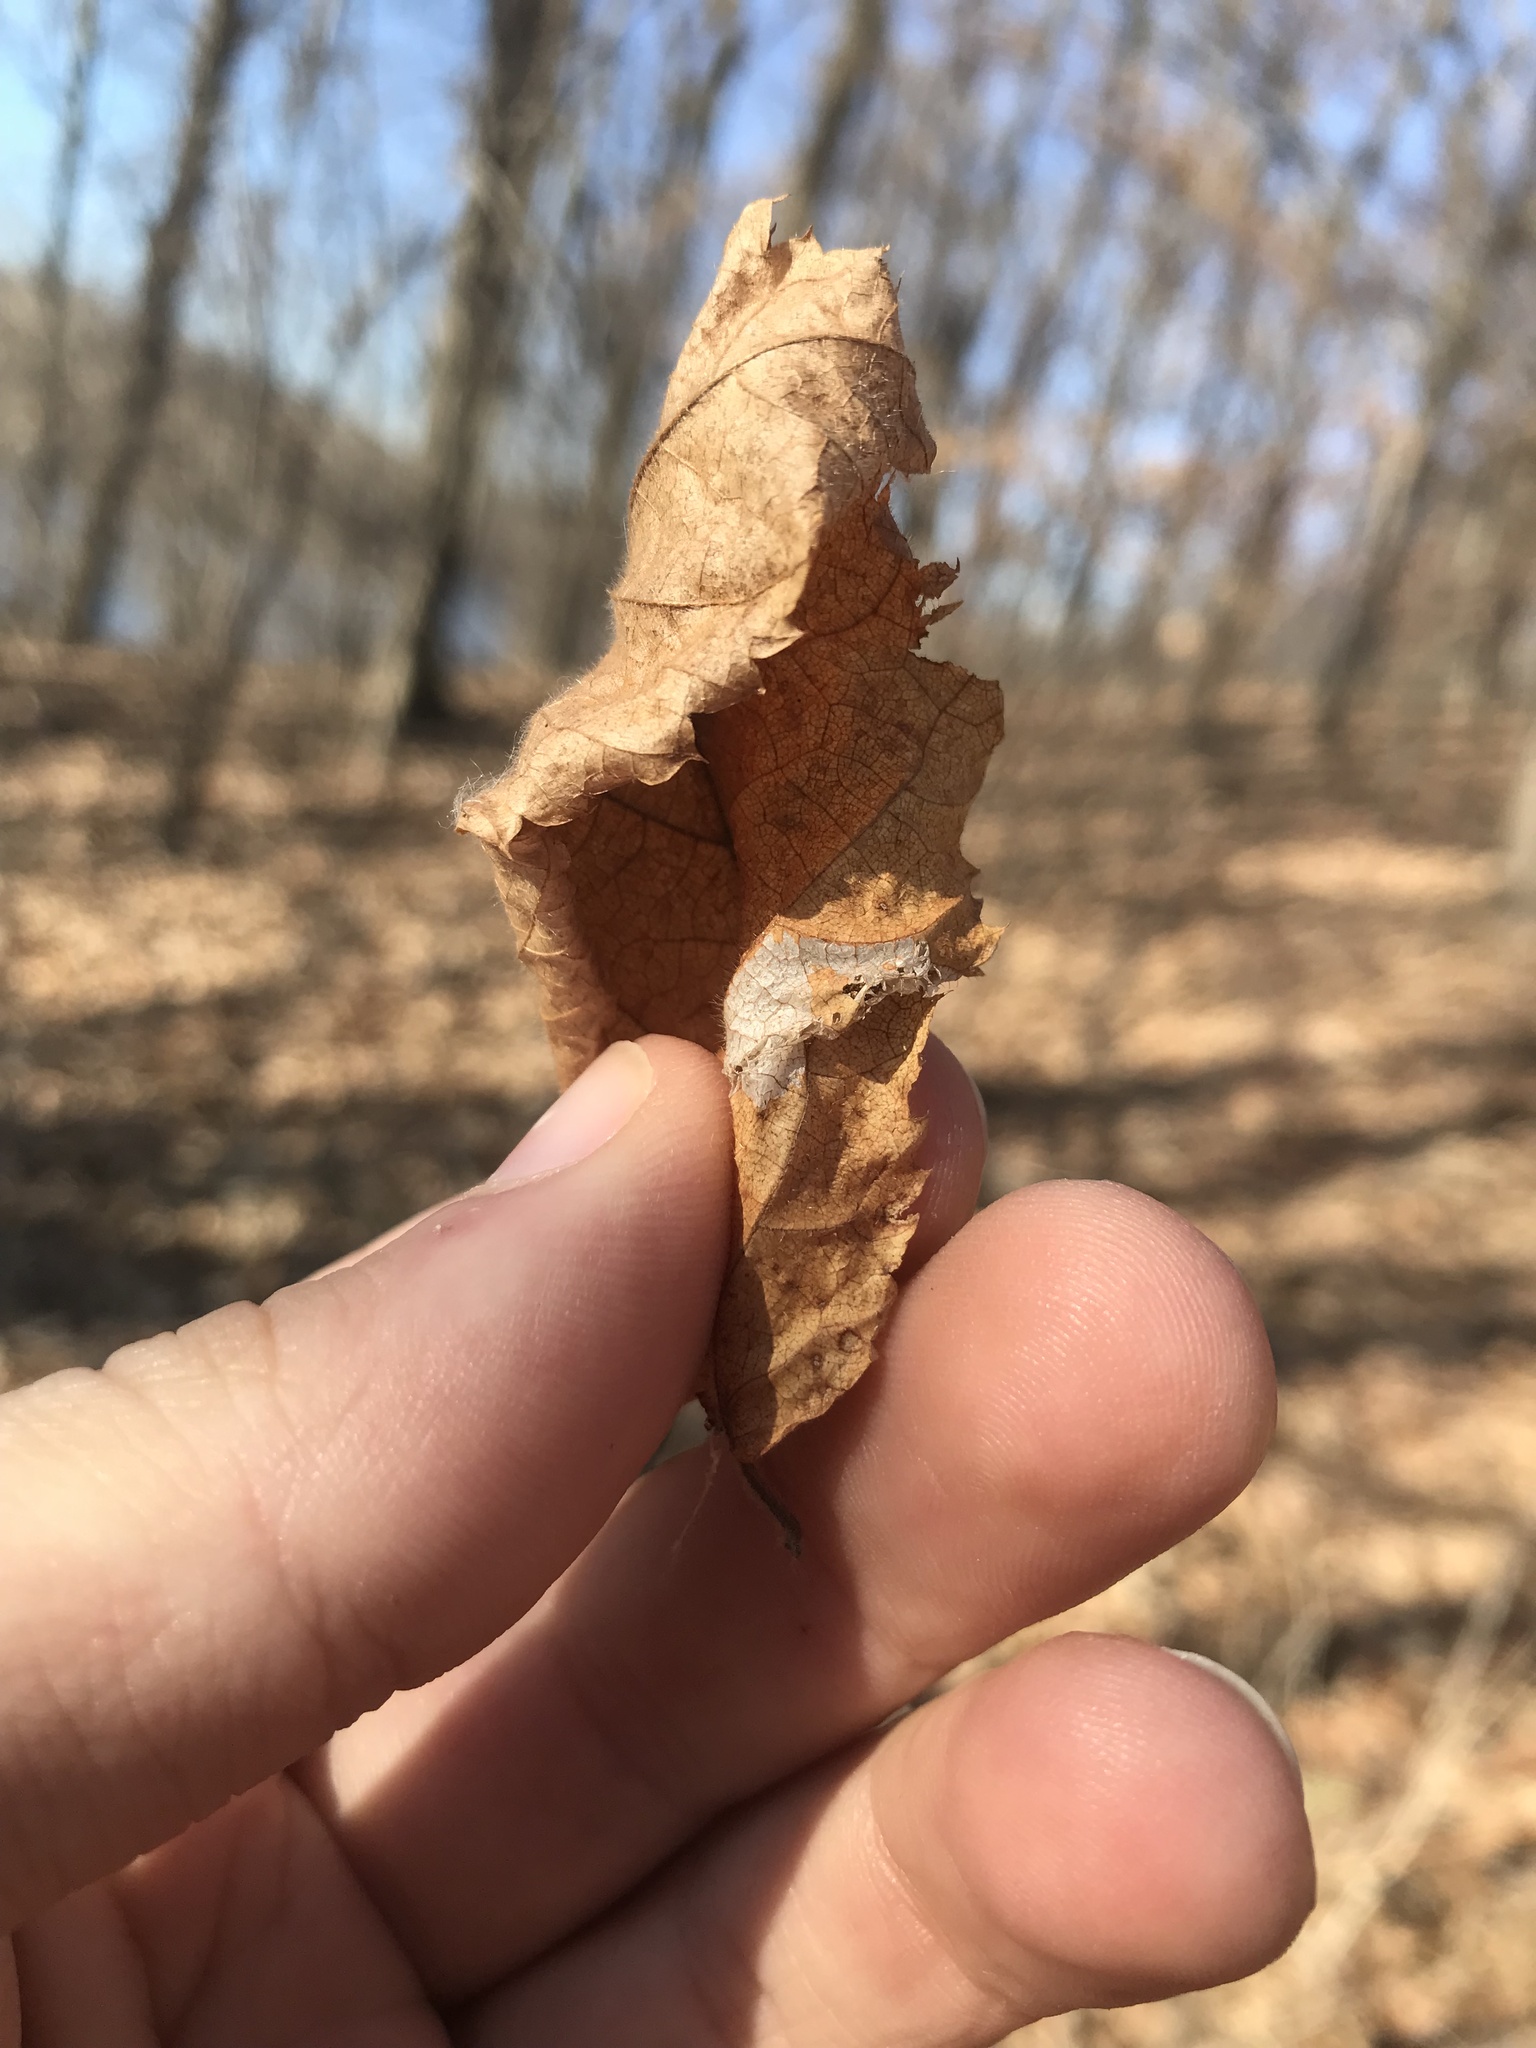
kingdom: Animalia
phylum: Arthropoda
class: Insecta
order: Lepidoptera
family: Gracillariidae
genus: Phyllonorycter
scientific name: Phyllonorycter ostryaefoliella
